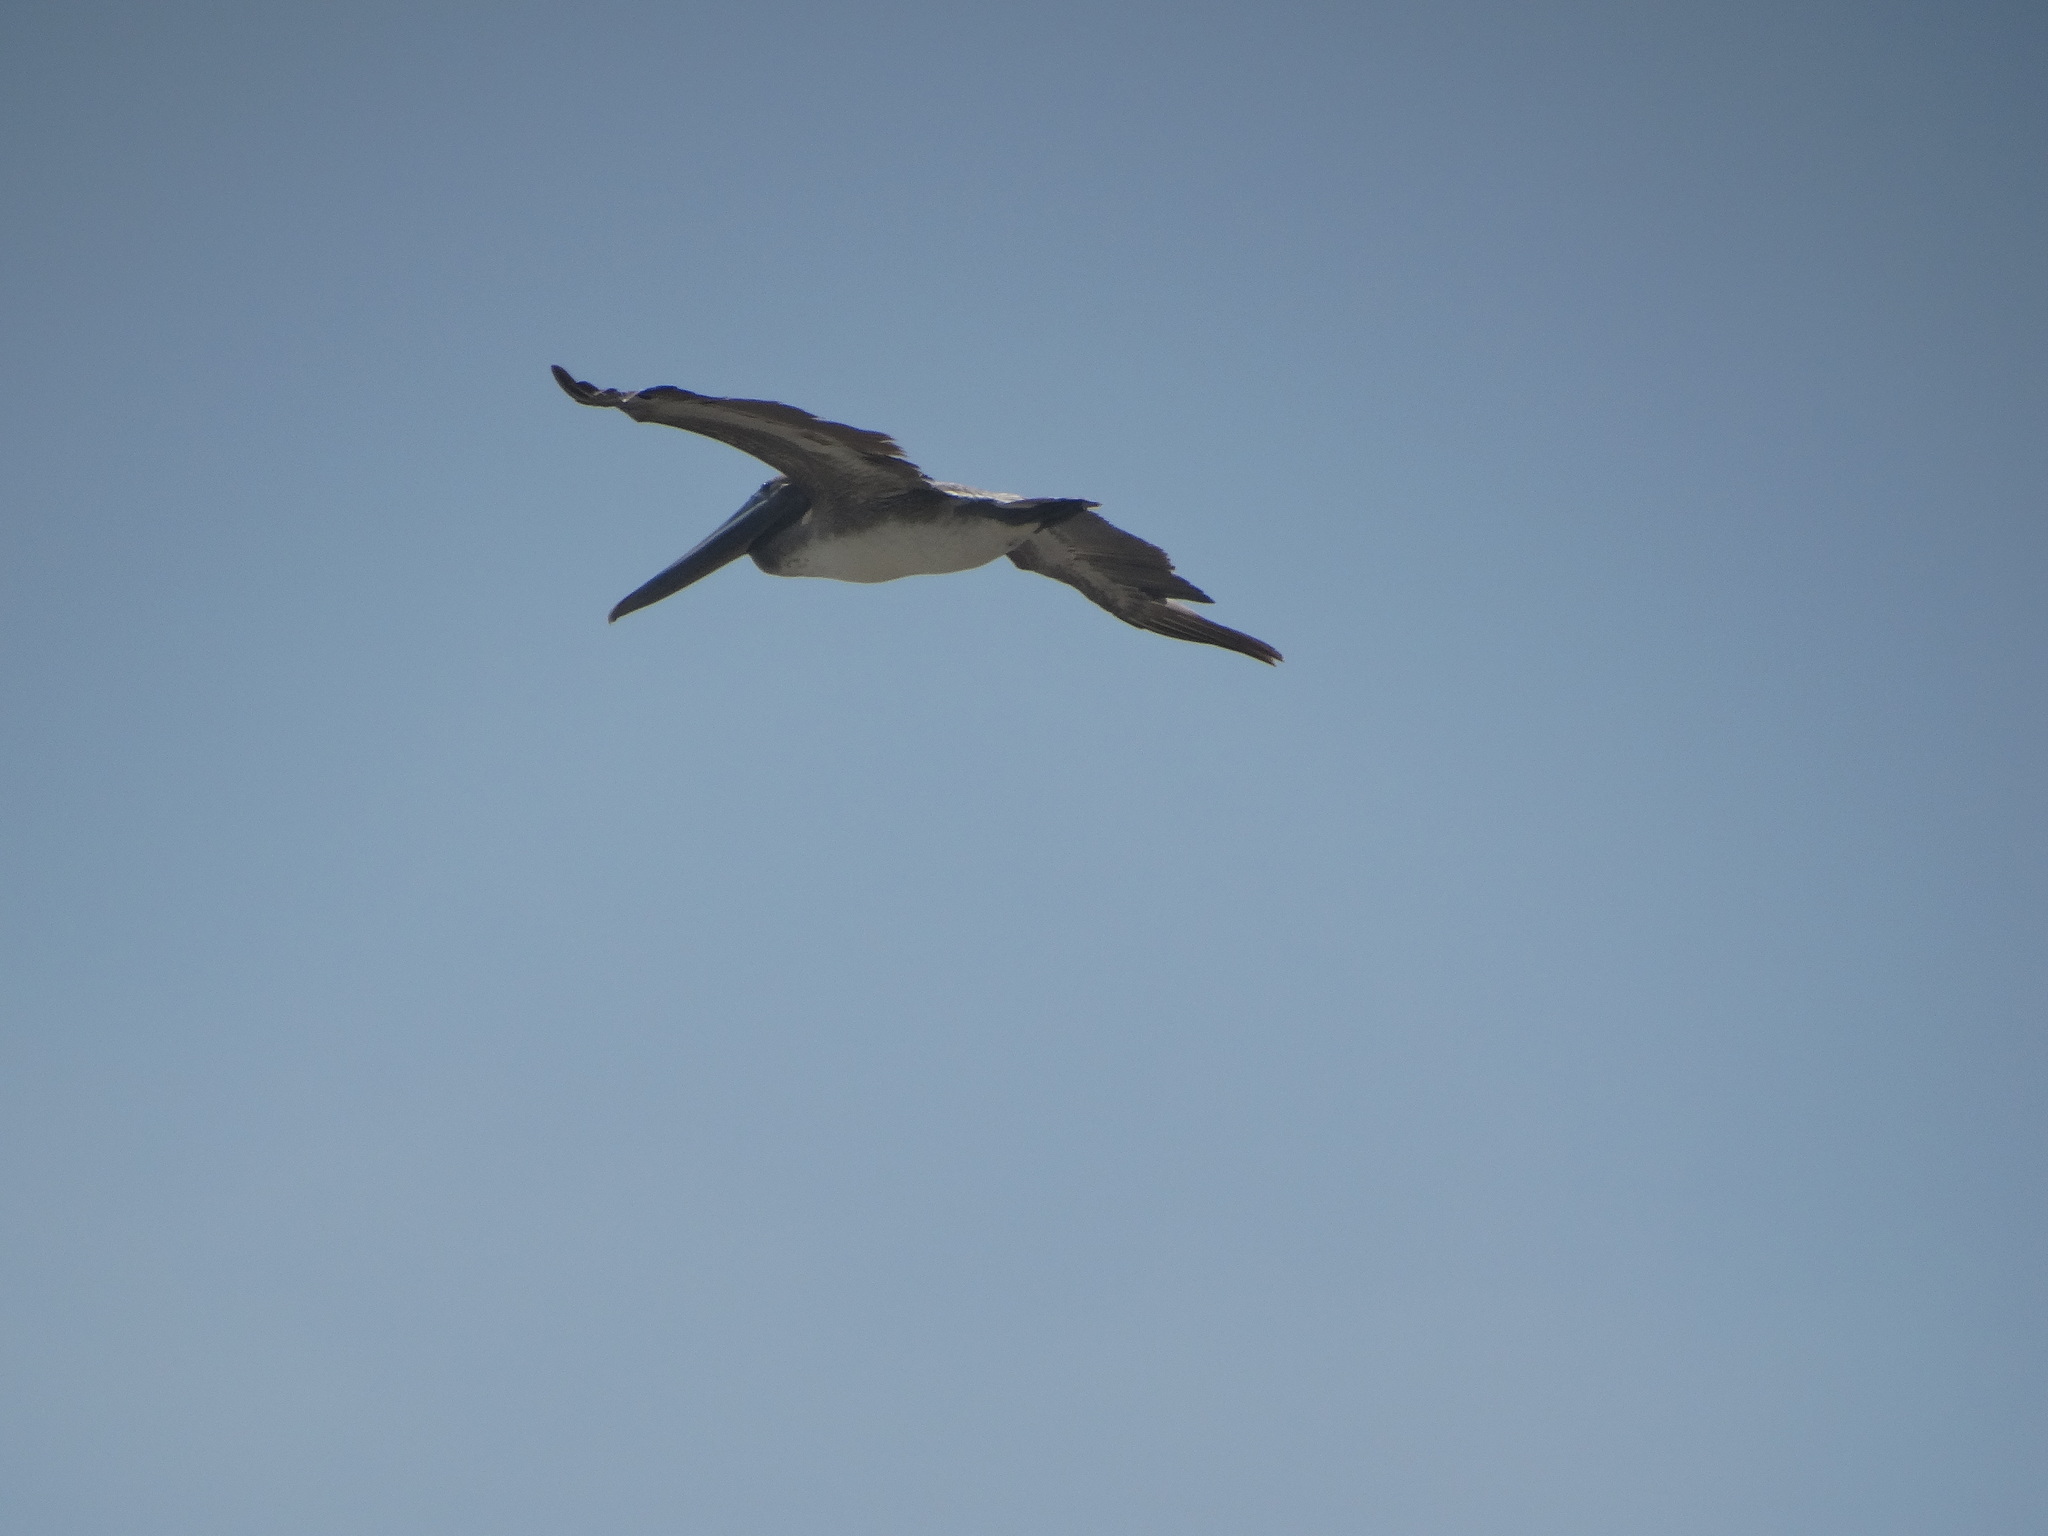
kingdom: Animalia
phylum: Chordata
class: Aves
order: Pelecaniformes
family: Pelecanidae
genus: Pelecanus
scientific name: Pelecanus occidentalis
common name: Brown pelican
